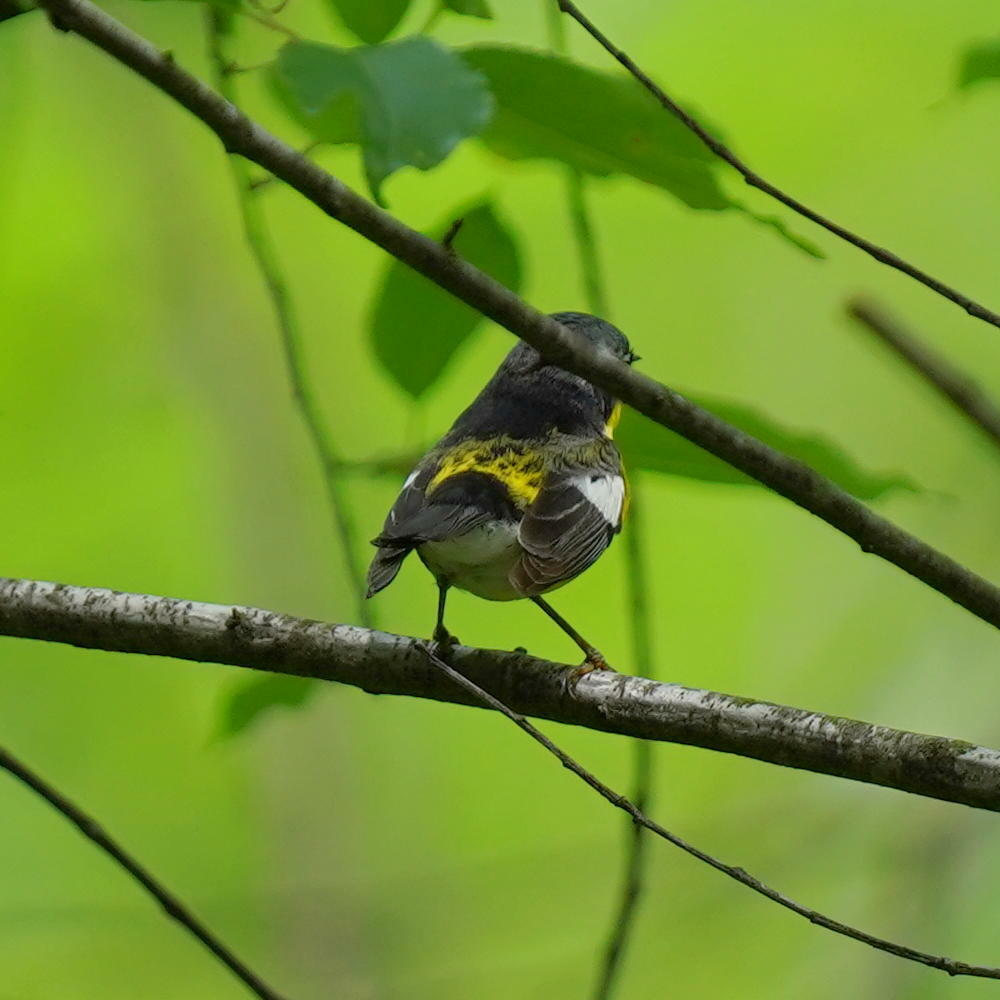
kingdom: Animalia
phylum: Chordata
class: Aves
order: Passeriformes
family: Parulidae
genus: Setophaga
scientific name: Setophaga magnolia
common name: Magnolia warbler
